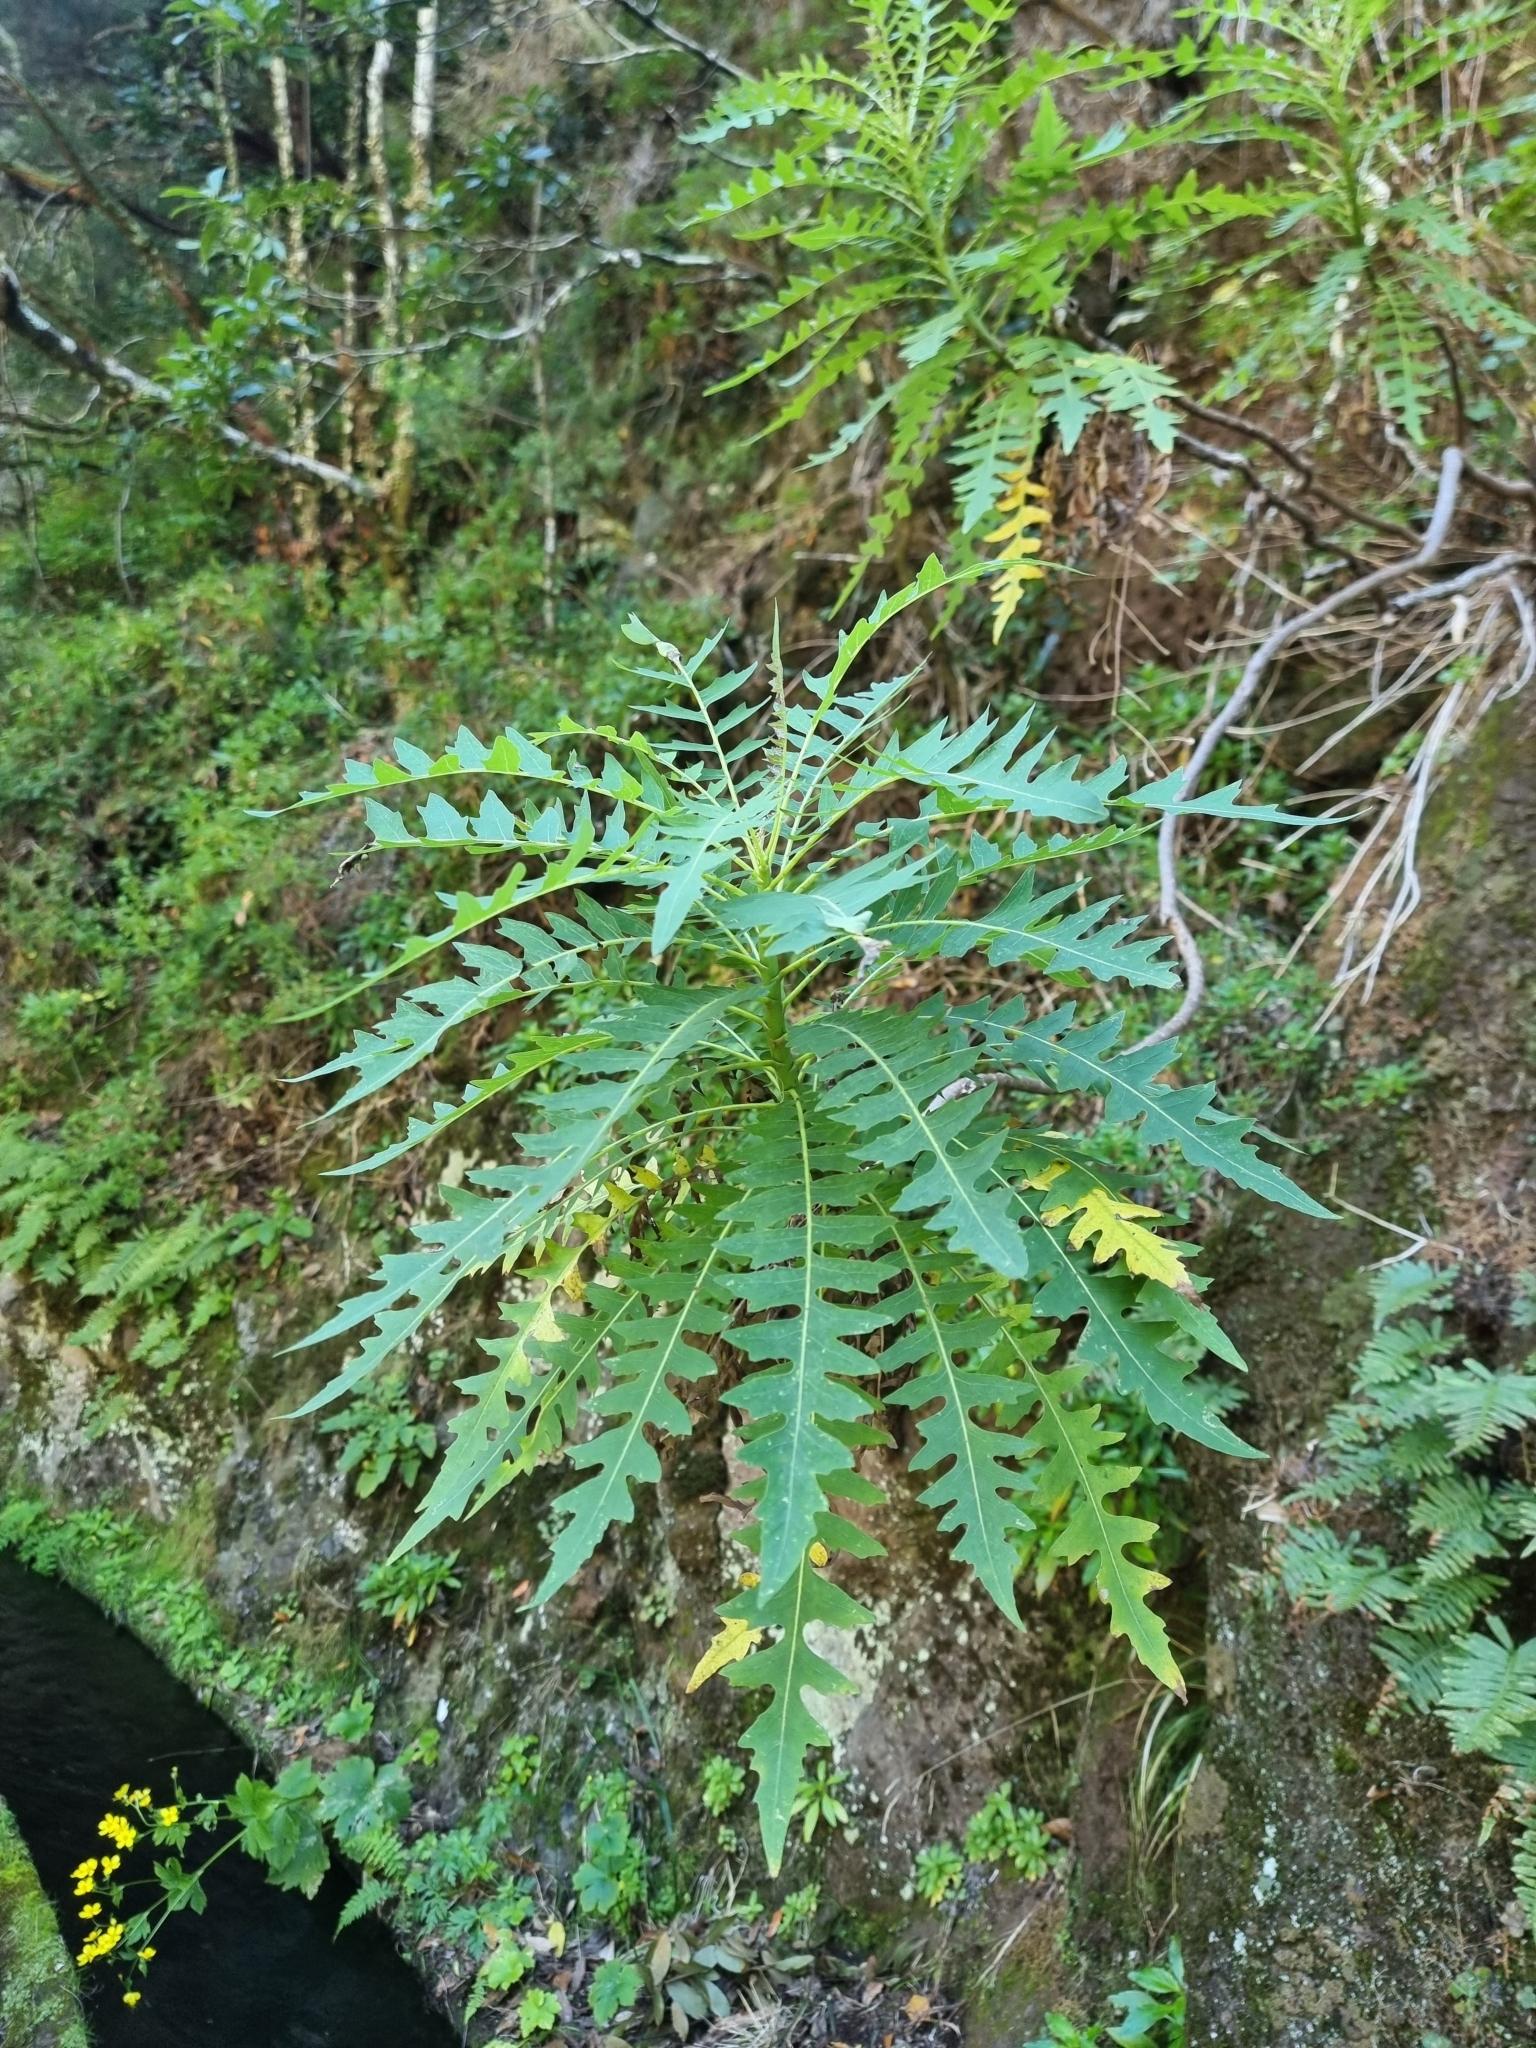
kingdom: Plantae
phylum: Tracheophyta
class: Magnoliopsida
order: Asterales
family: Asteraceae
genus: Sonchus
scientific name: Sonchus pinnatus
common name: Wing-leaved sow-thistle
